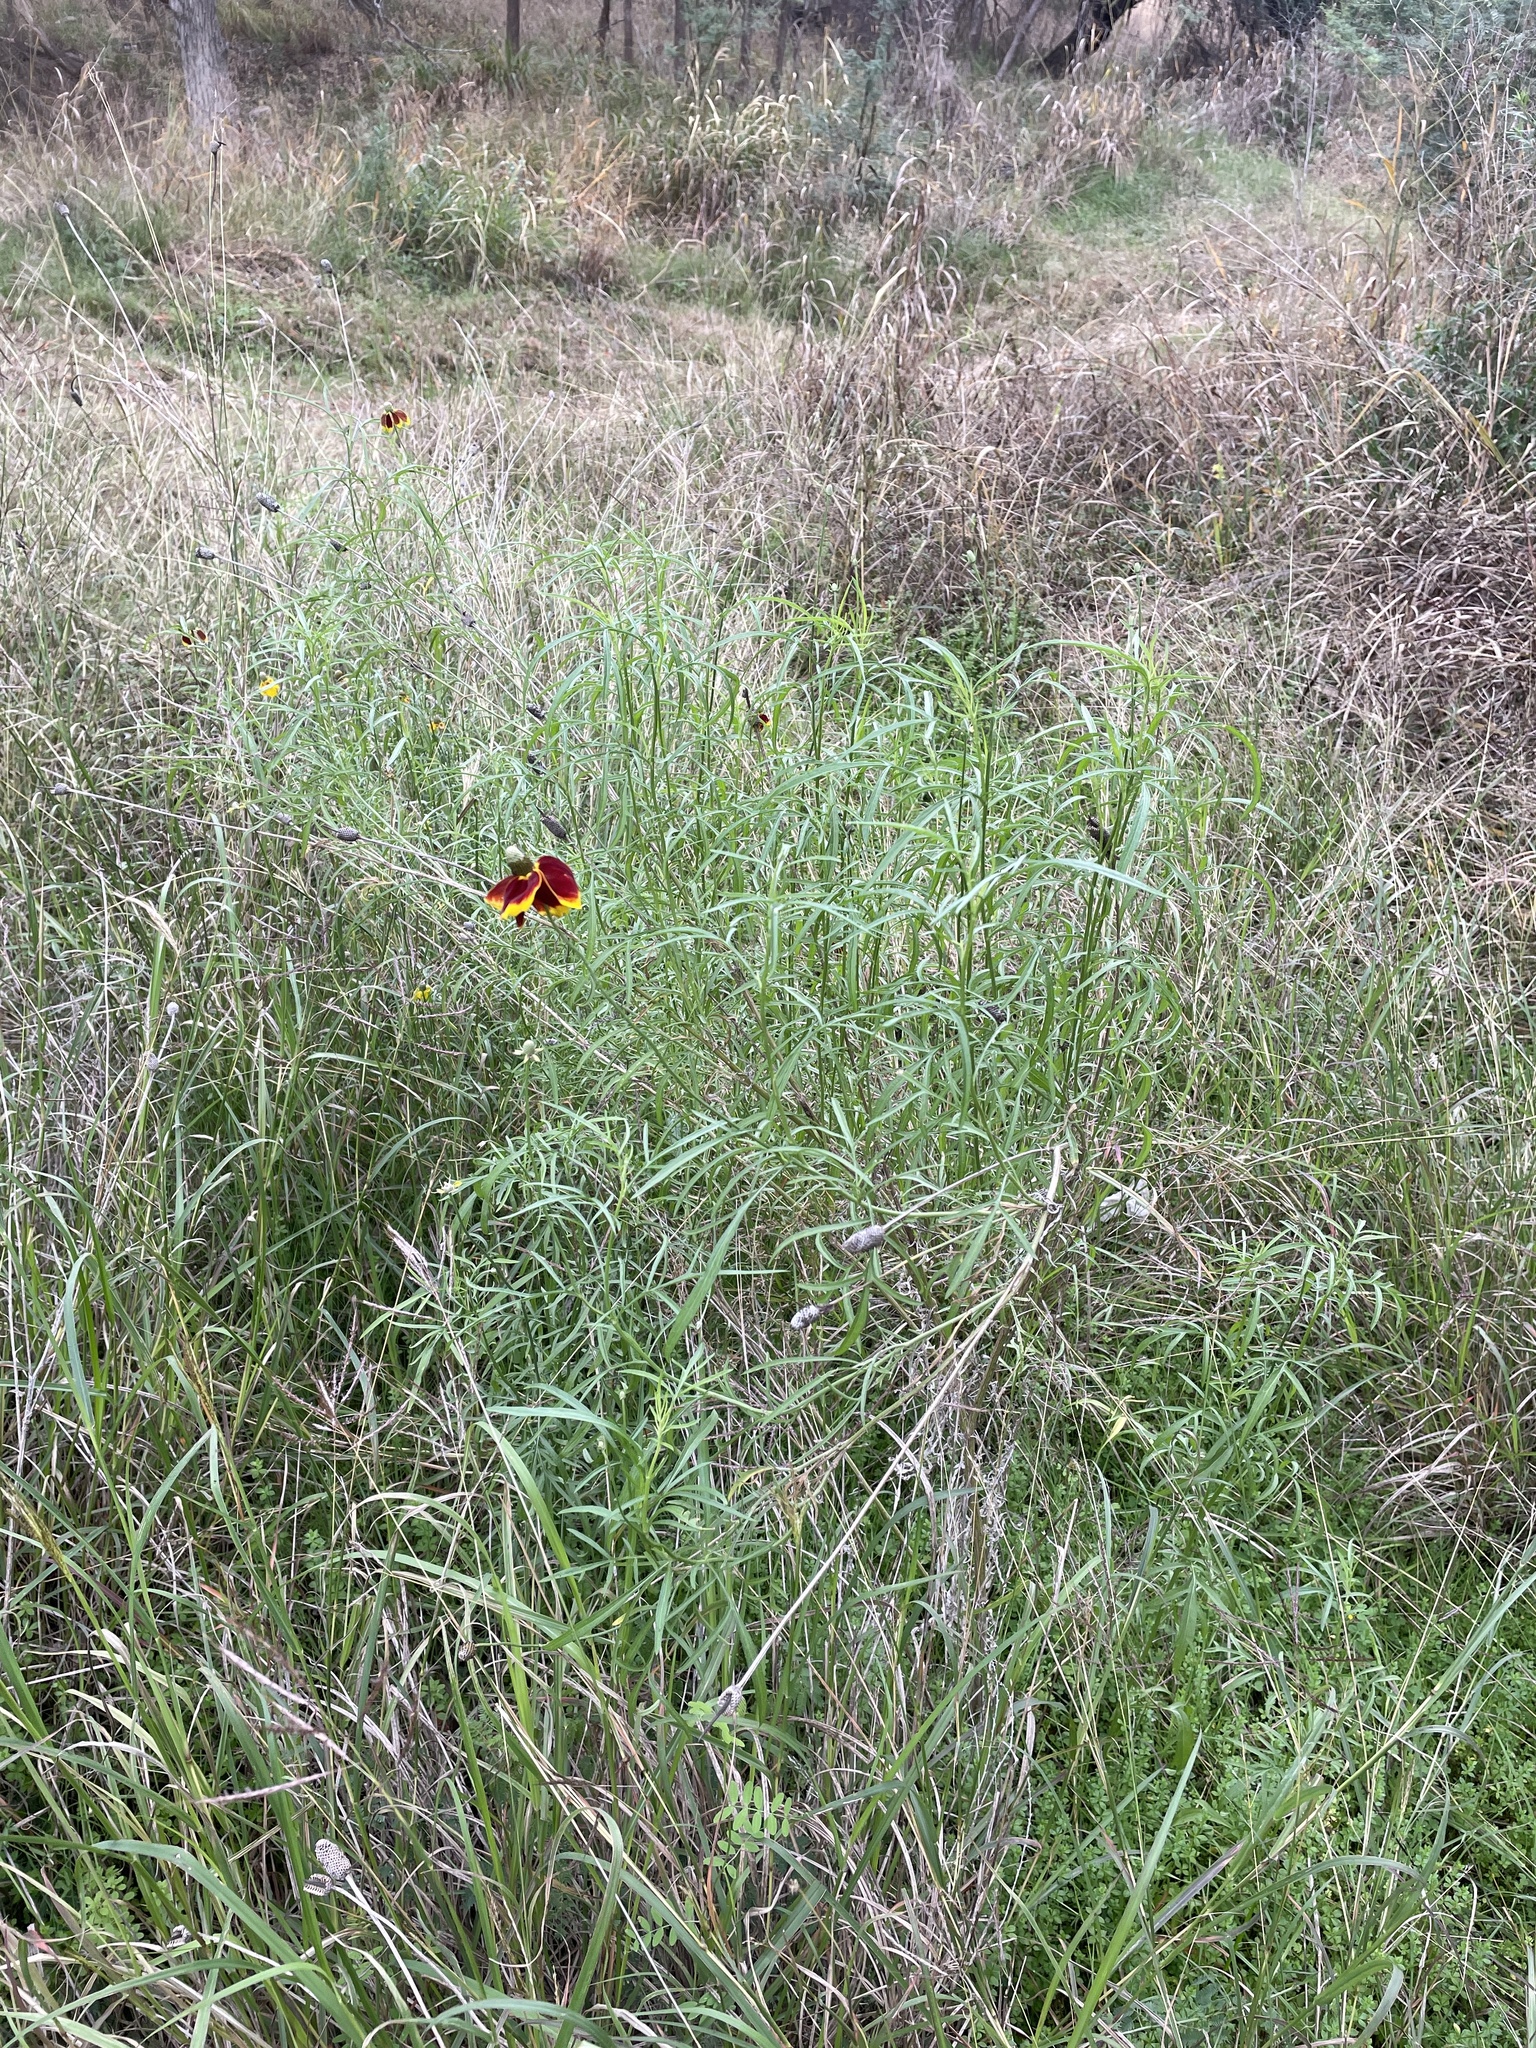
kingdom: Plantae
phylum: Tracheophyta
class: Magnoliopsida
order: Asterales
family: Asteraceae
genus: Ratibida
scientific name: Ratibida columnifera
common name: Prairie coneflower
